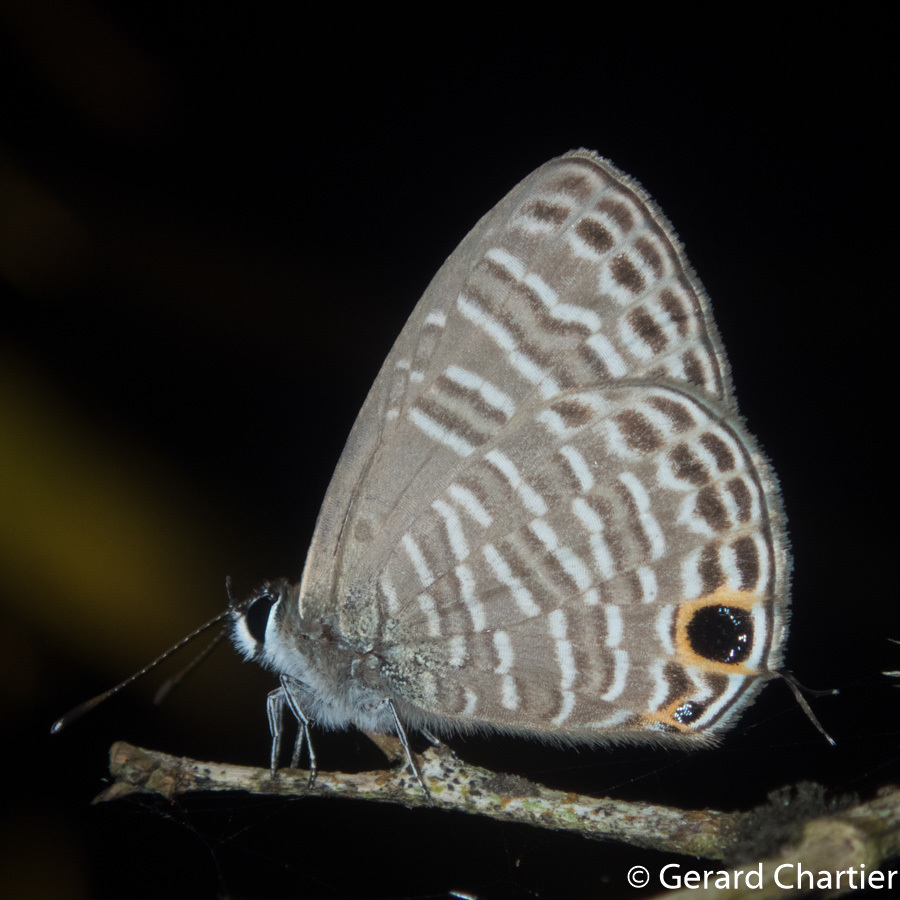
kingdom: Animalia
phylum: Arthropoda
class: Insecta
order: Lepidoptera
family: Lycaenidae
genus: Nacaduba
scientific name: Nacaduba pavana
